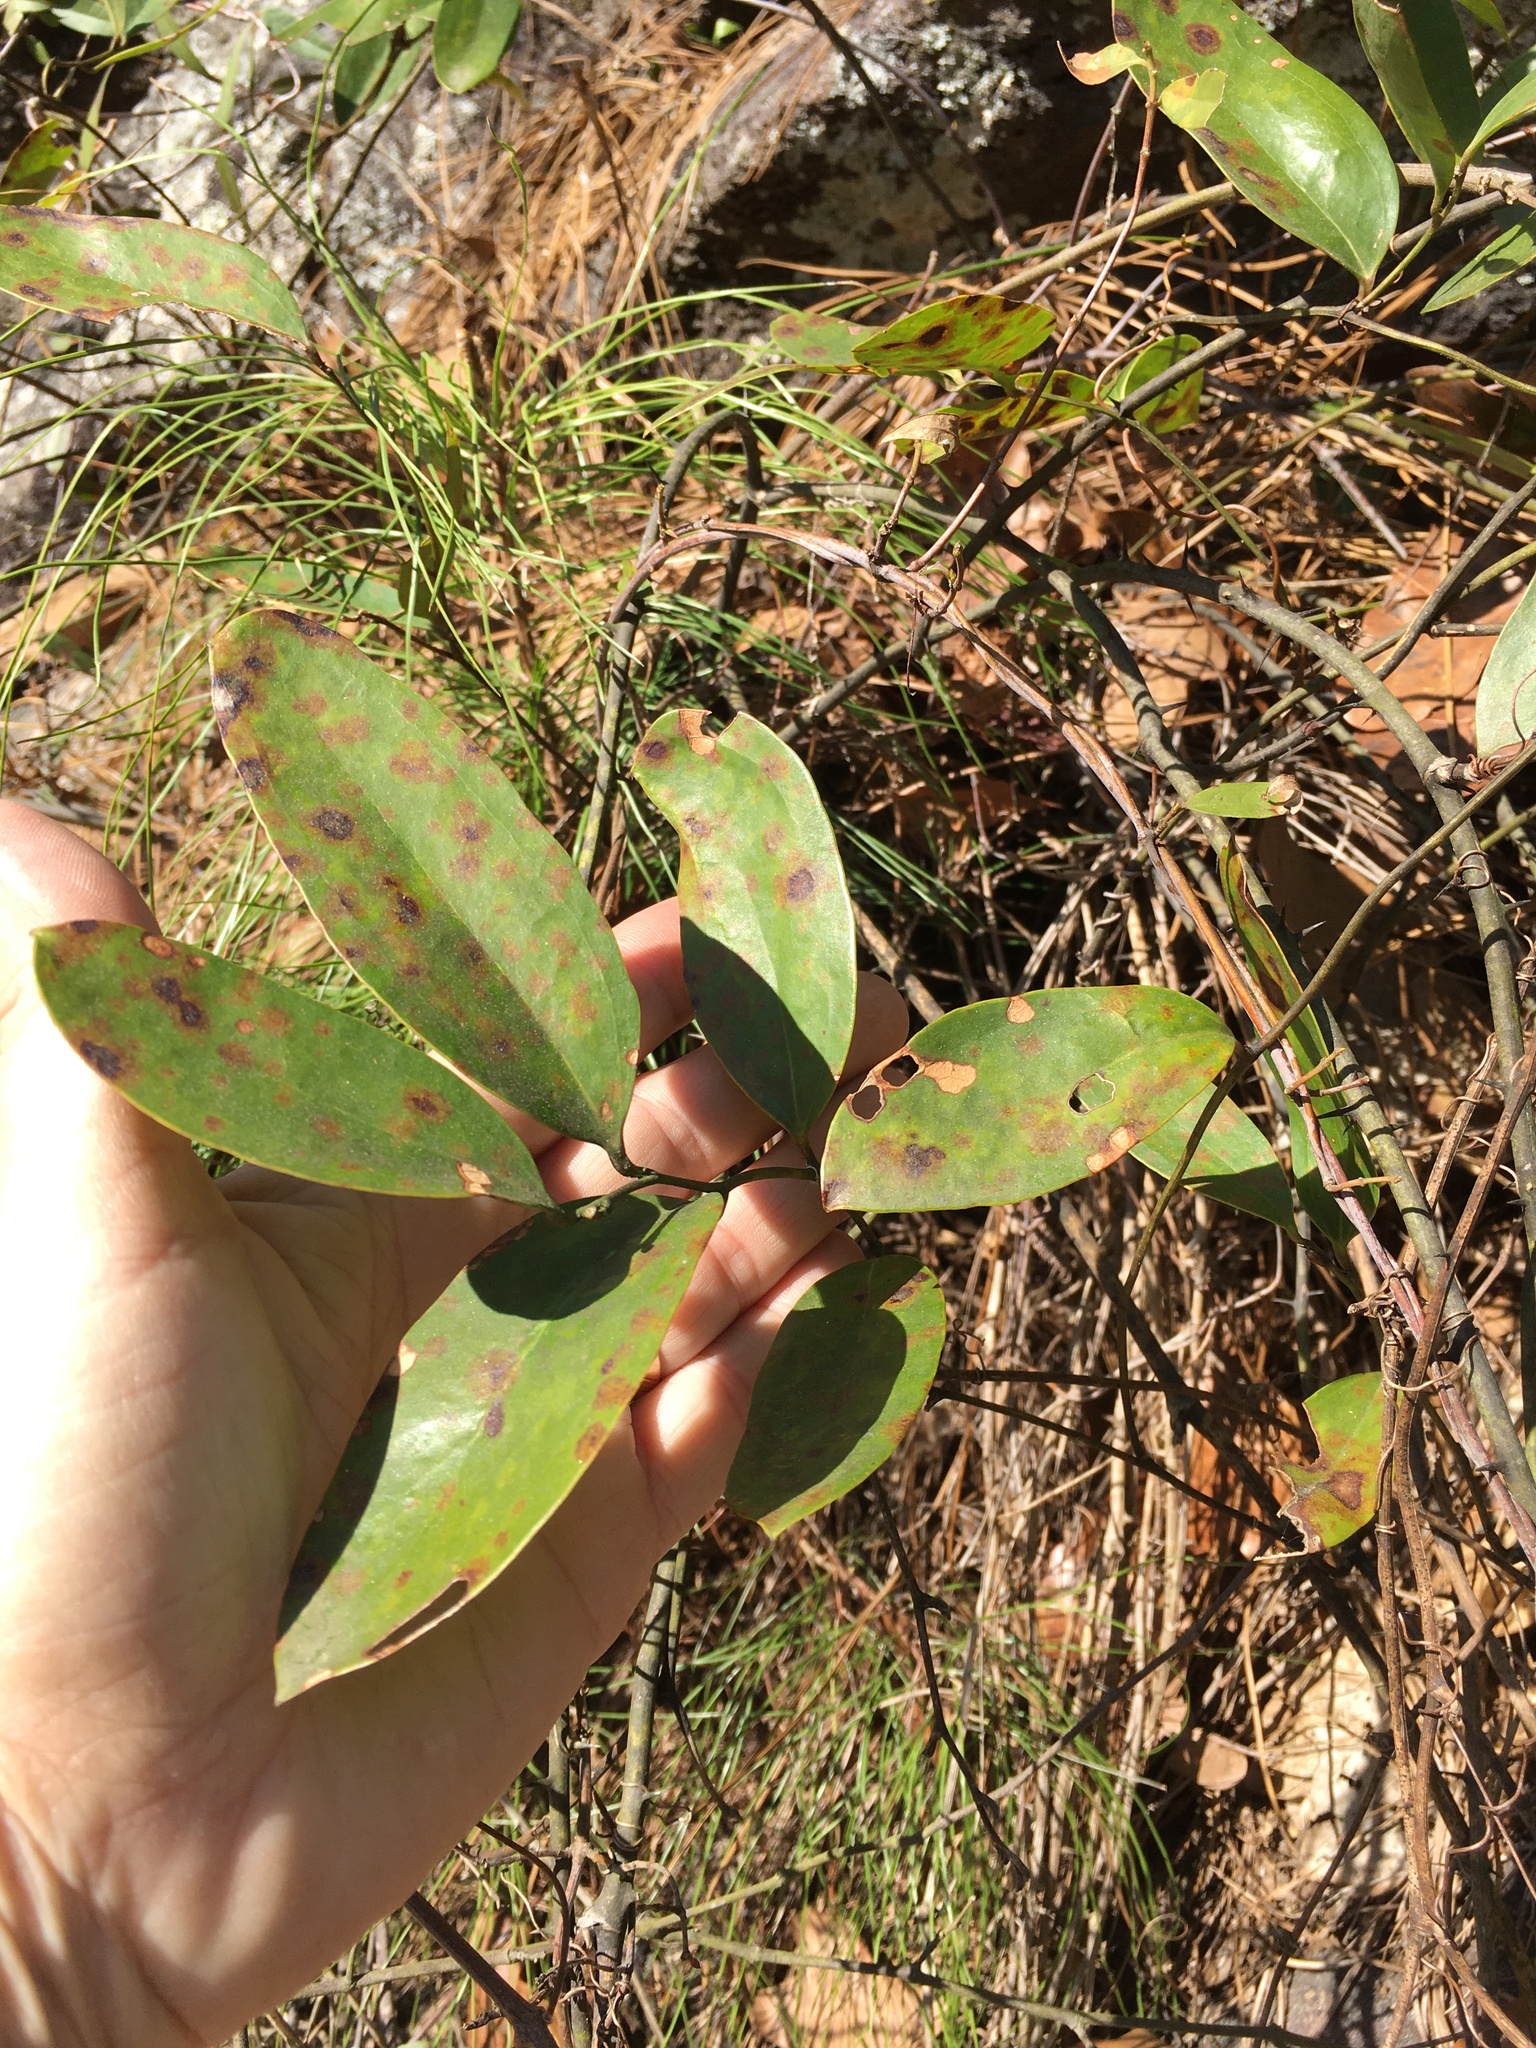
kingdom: Plantae
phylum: Tracheophyta
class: Liliopsida
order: Liliales
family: Smilacaceae
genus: Smilax
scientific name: Smilax laurifolia
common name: Bamboovine
